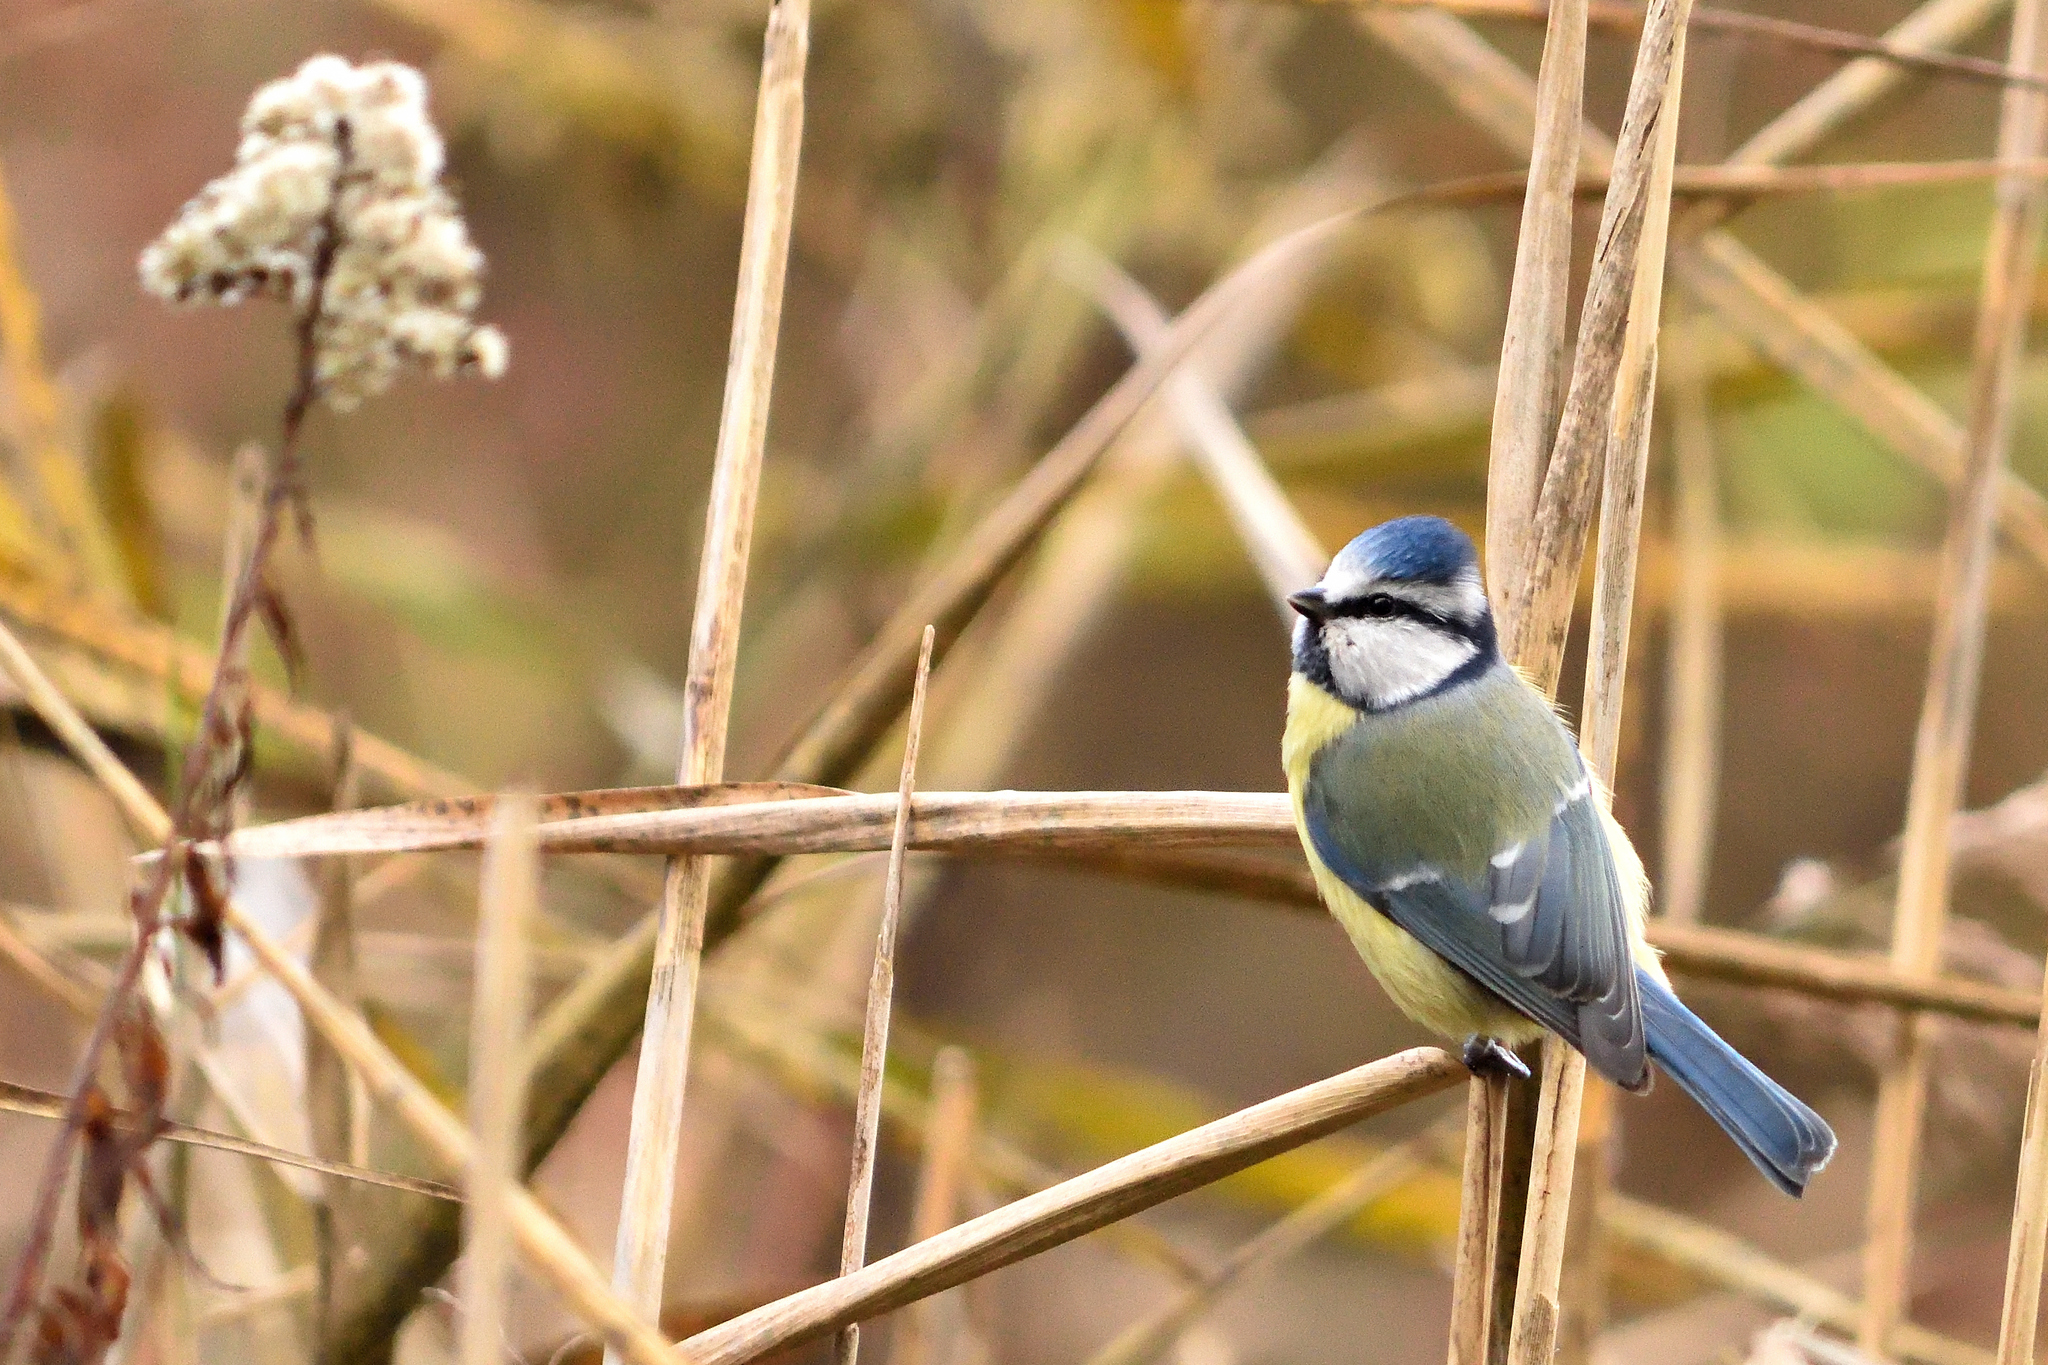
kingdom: Animalia
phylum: Chordata
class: Aves
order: Passeriformes
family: Paridae
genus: Cyanistes
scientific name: Cyanistes caeruleus
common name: Eurasian blue tit
